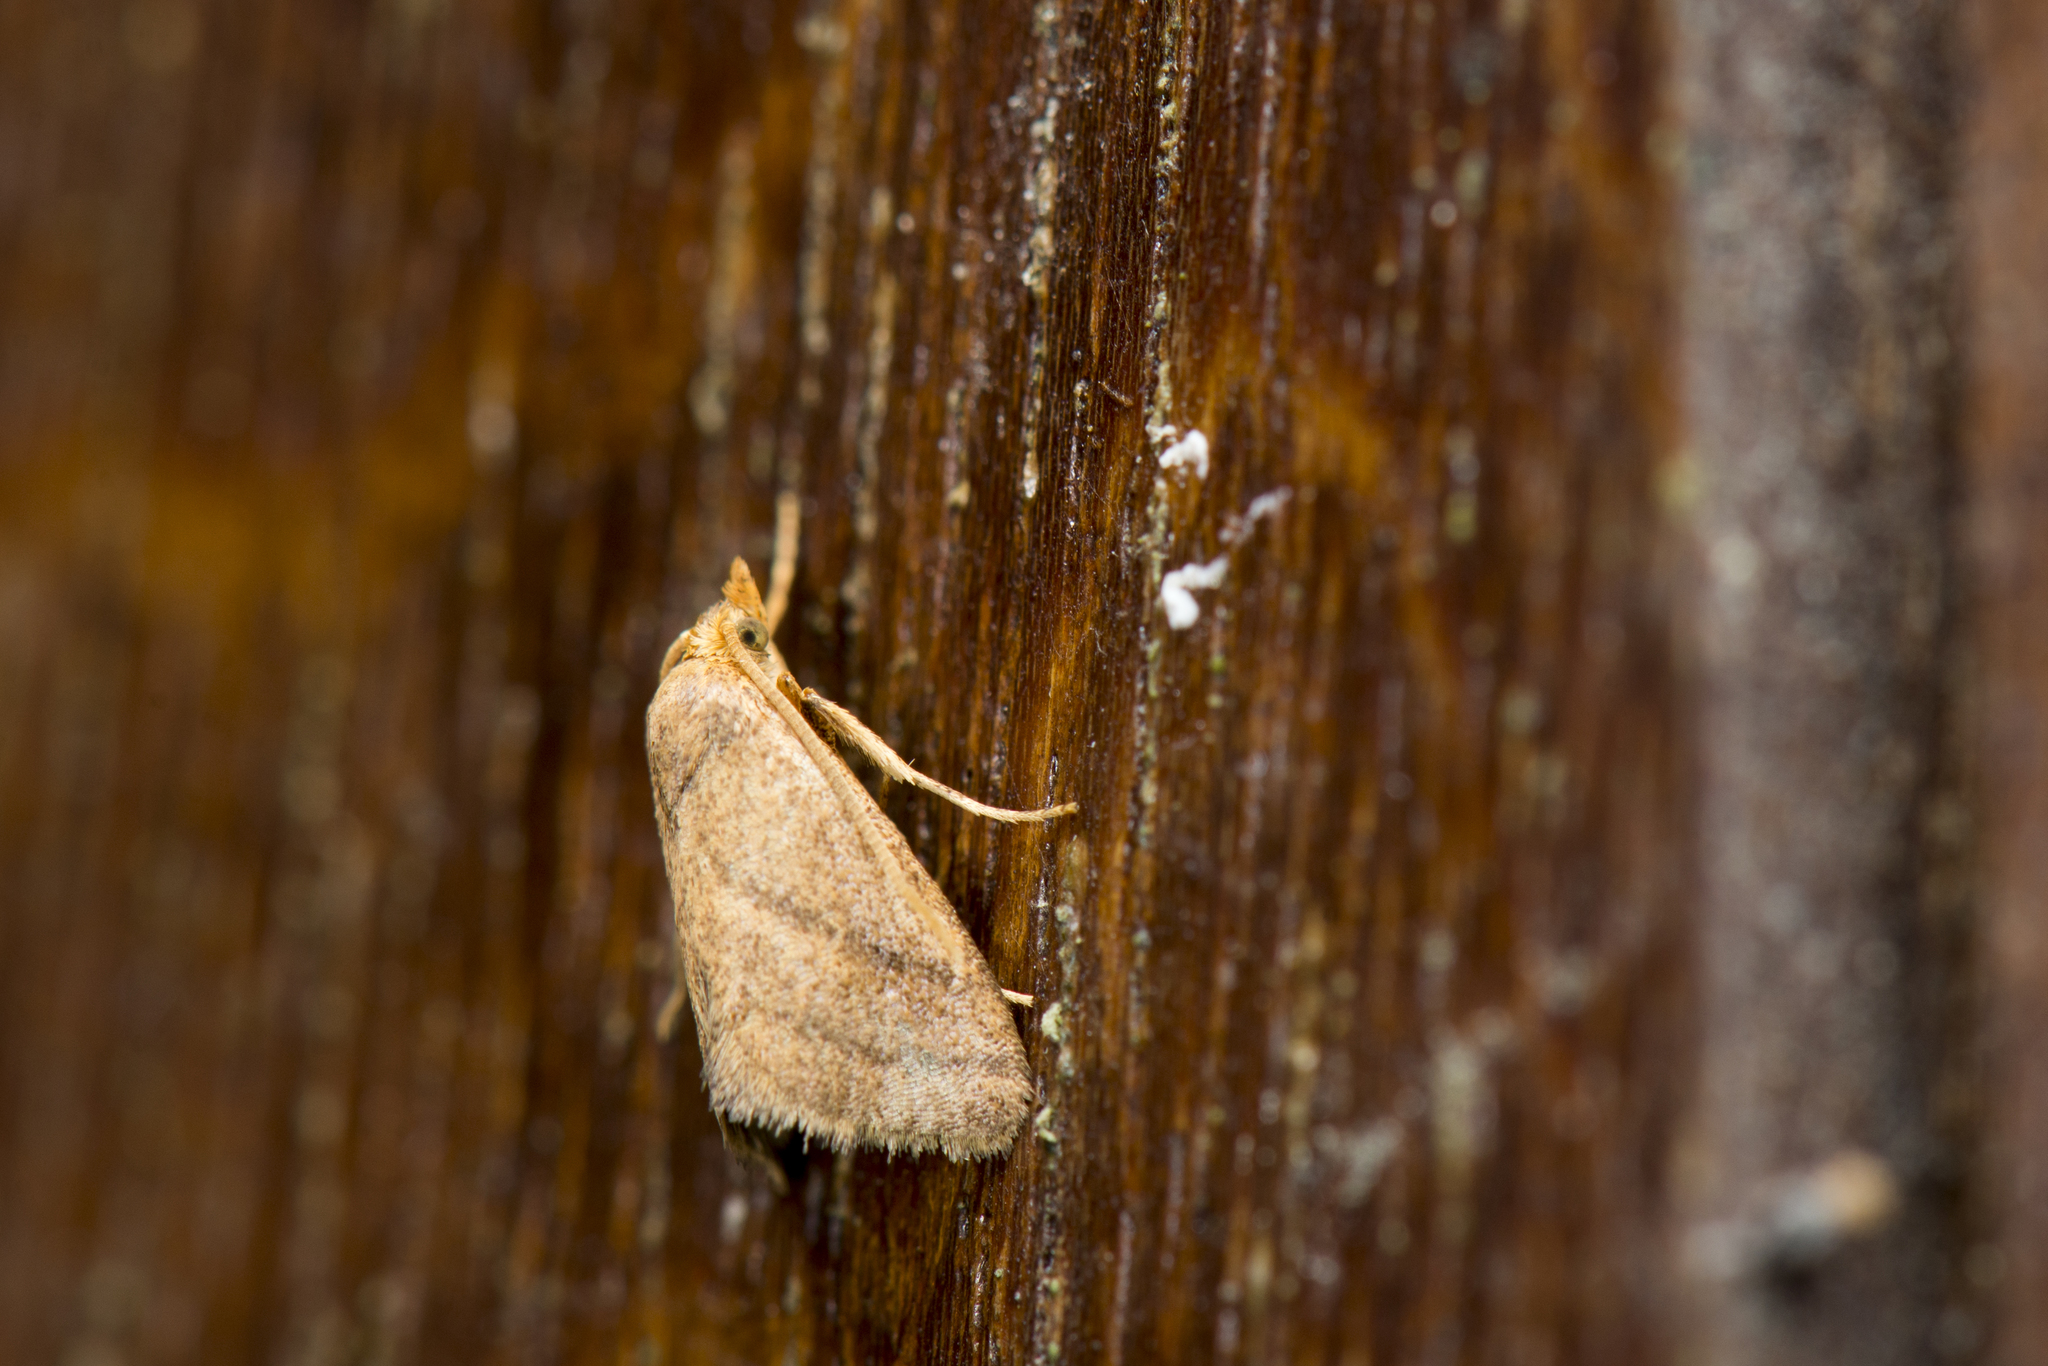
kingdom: Animalia
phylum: Arthropoda
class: Insecta
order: Lepidoptera
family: Limacodidae
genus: Ceratonema
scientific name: Ceratonema wilemani
